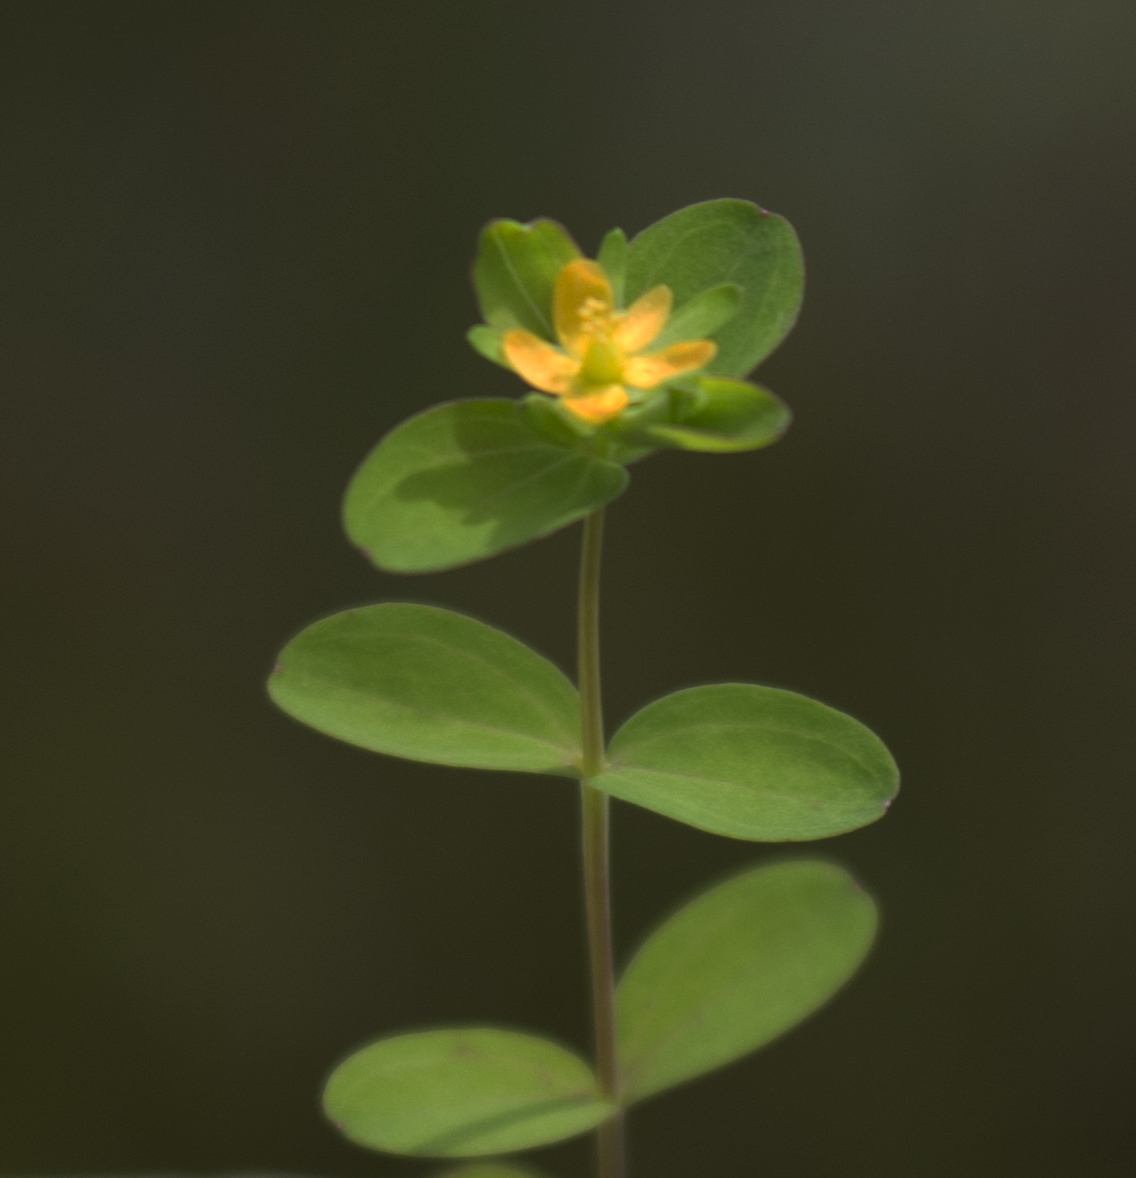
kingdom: Plantae
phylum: Tracheophyta
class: Magnoliopsida
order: Malpighiales
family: Hypericaceae
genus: Hypericum
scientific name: Hypericum boreale
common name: Northern bog st. john's-wort
